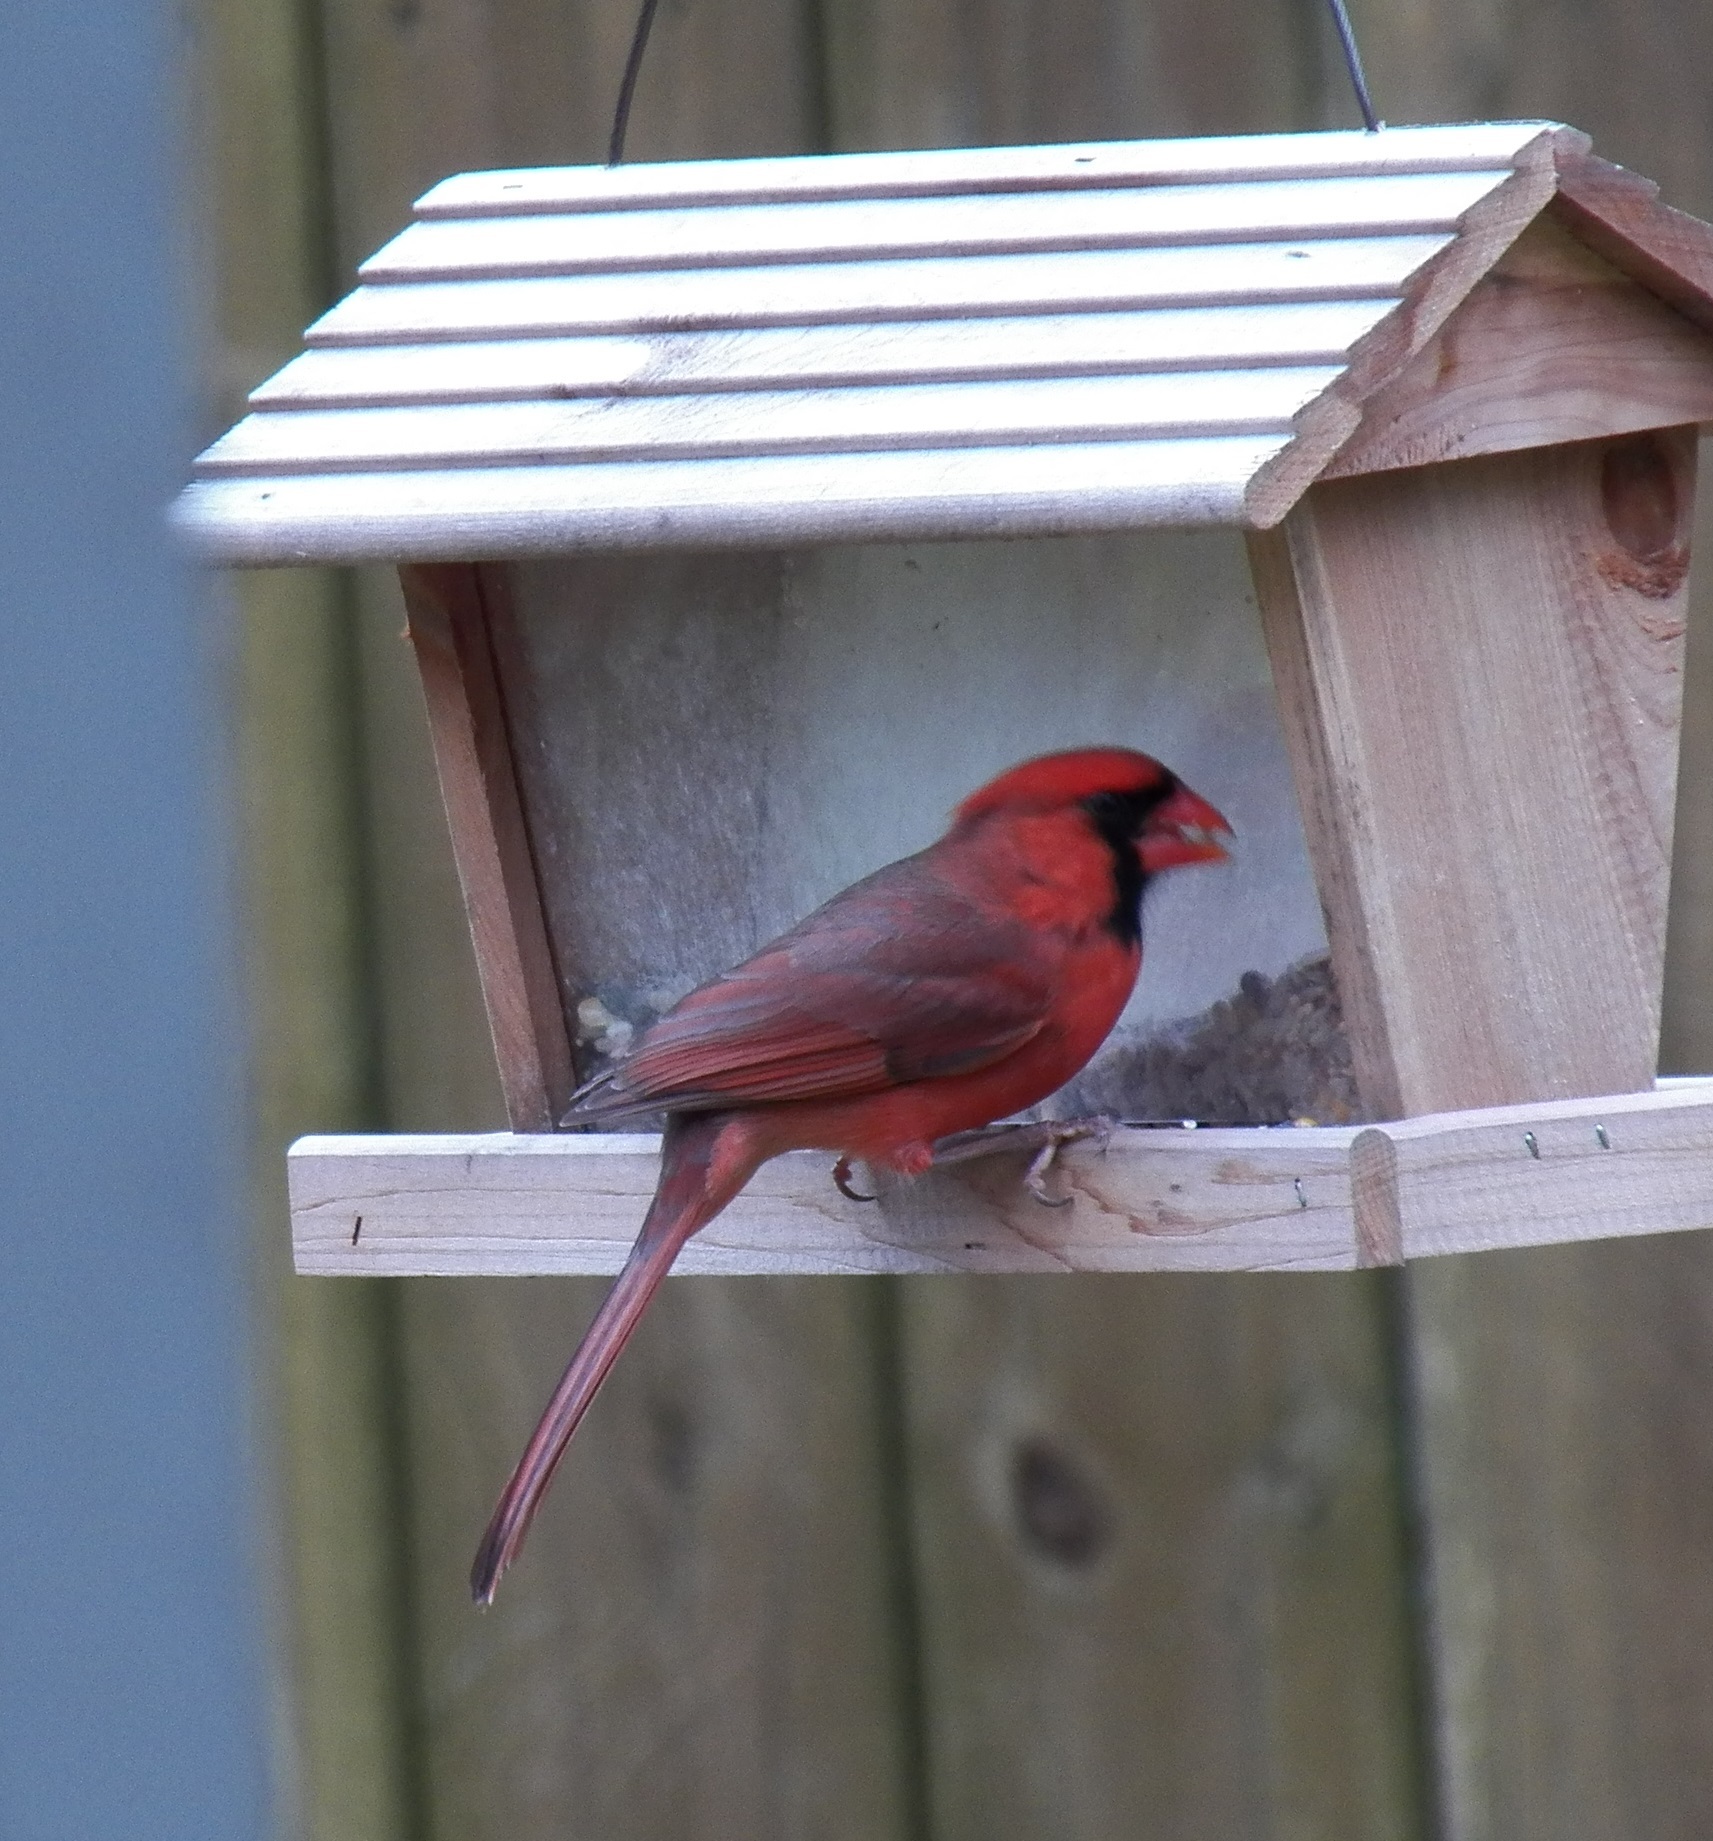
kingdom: Animalia
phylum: Chordata
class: Aves
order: Passeriformes
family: Cardinalidae
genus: Cardinalis
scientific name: Cardinalis cardinalis
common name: Northern cardinal
